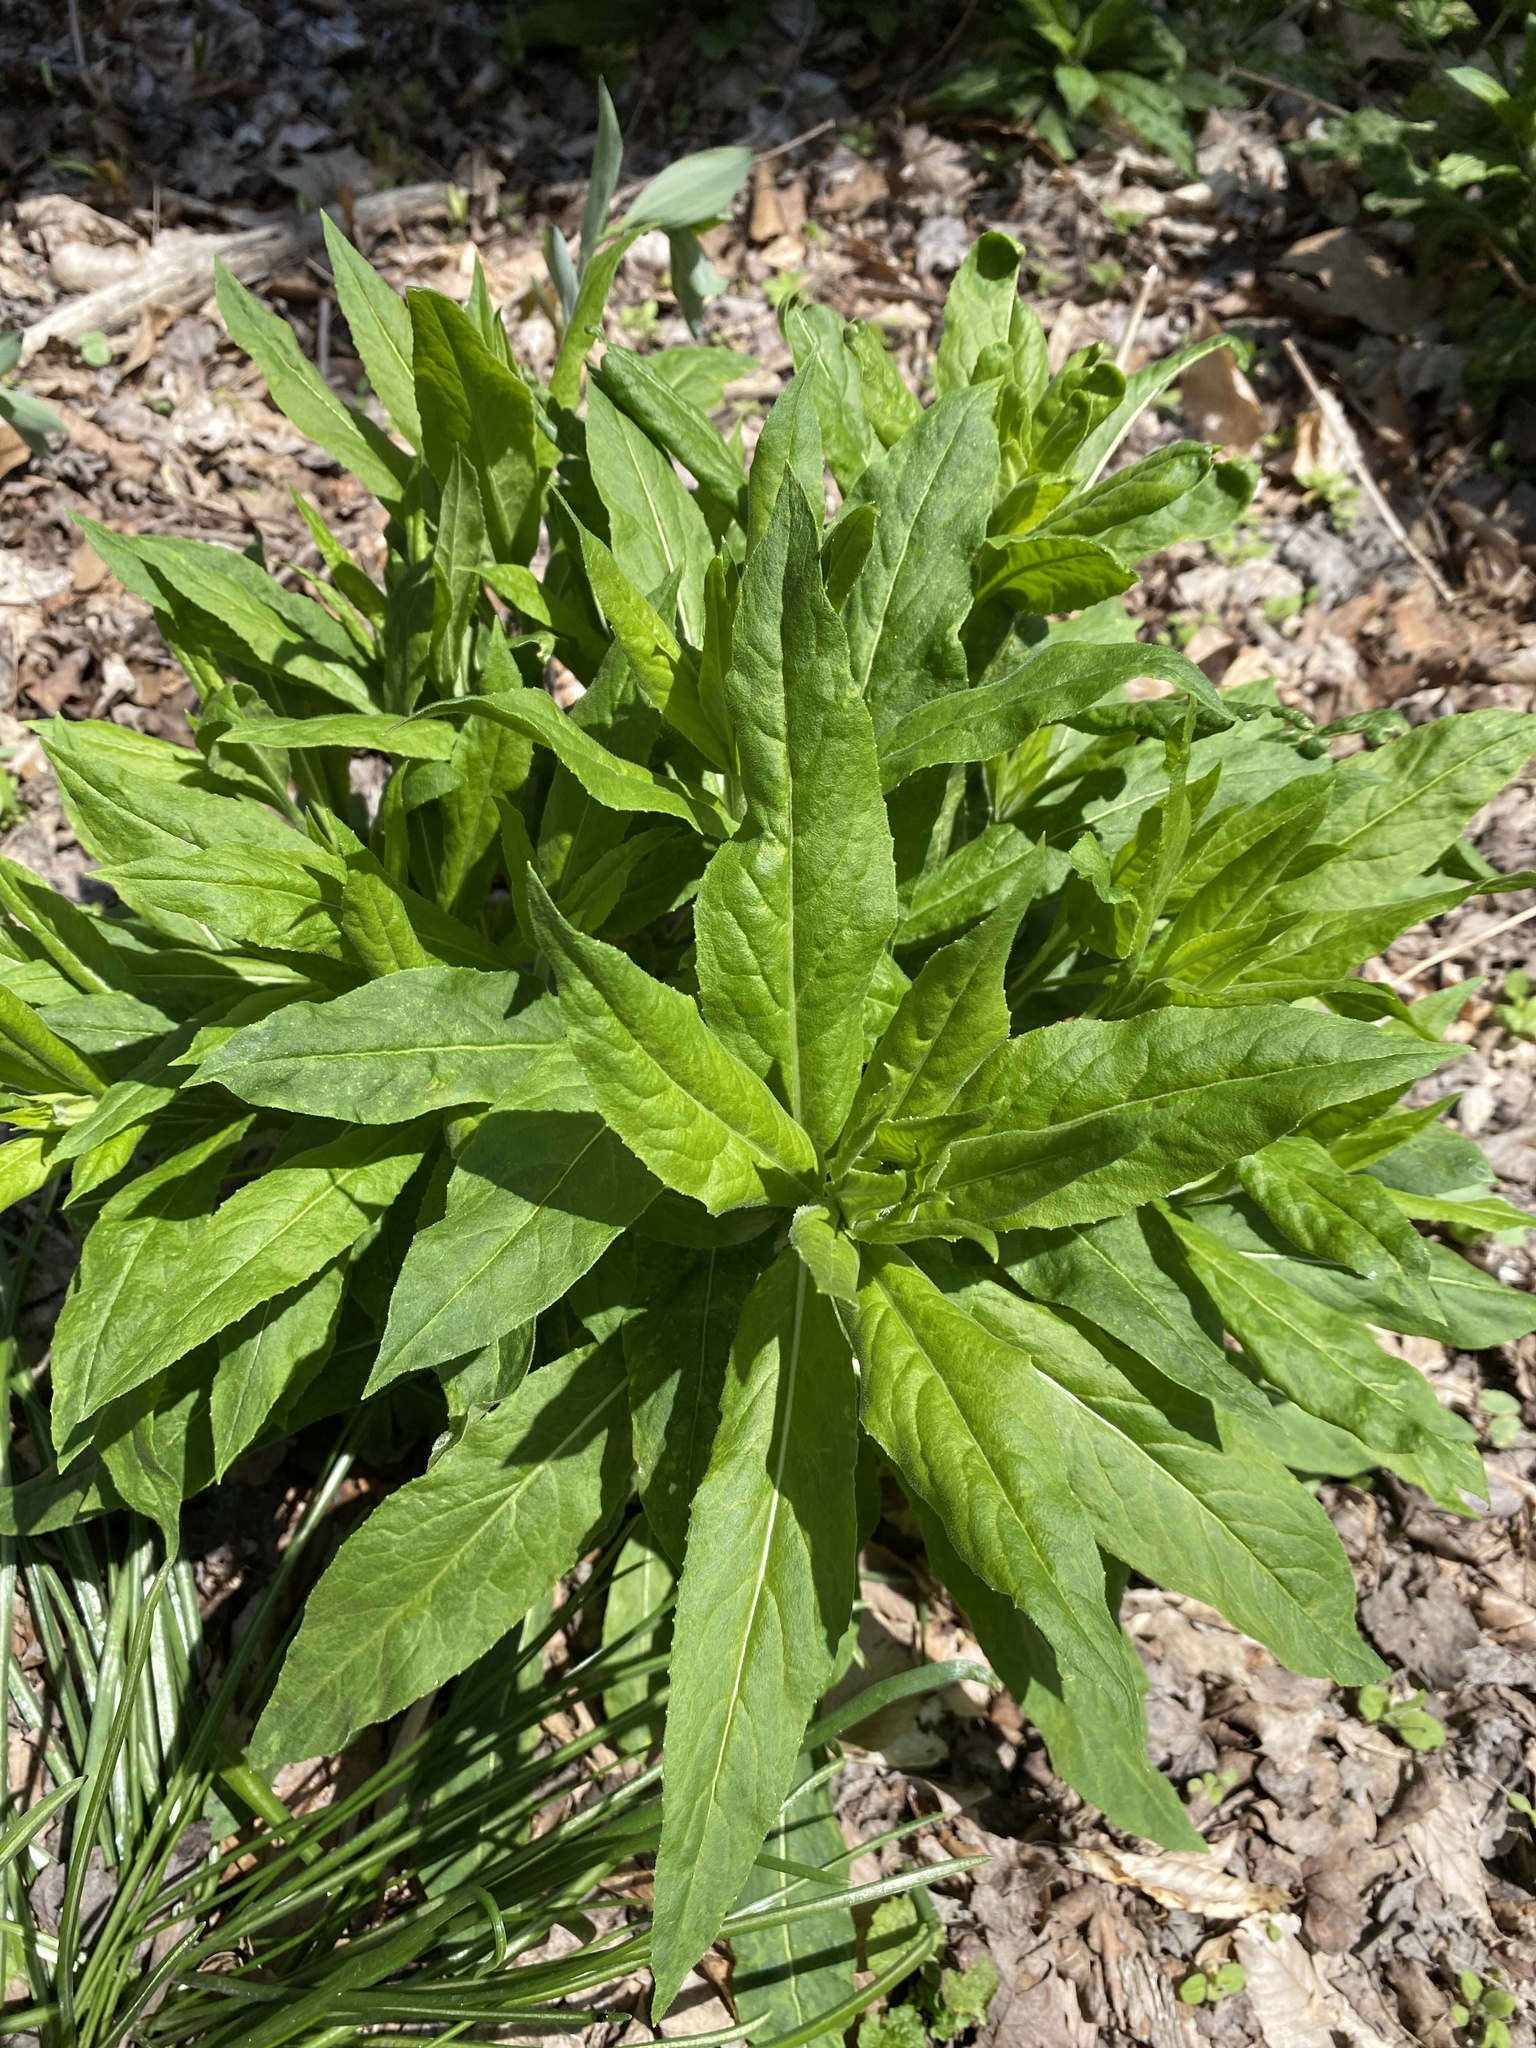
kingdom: Plantae
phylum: Tracheophyta
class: Magnoliopsida
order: Brassicales
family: Brassicaceae
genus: Hesperis
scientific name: Hesperis matronalis
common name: Dame's-violet
